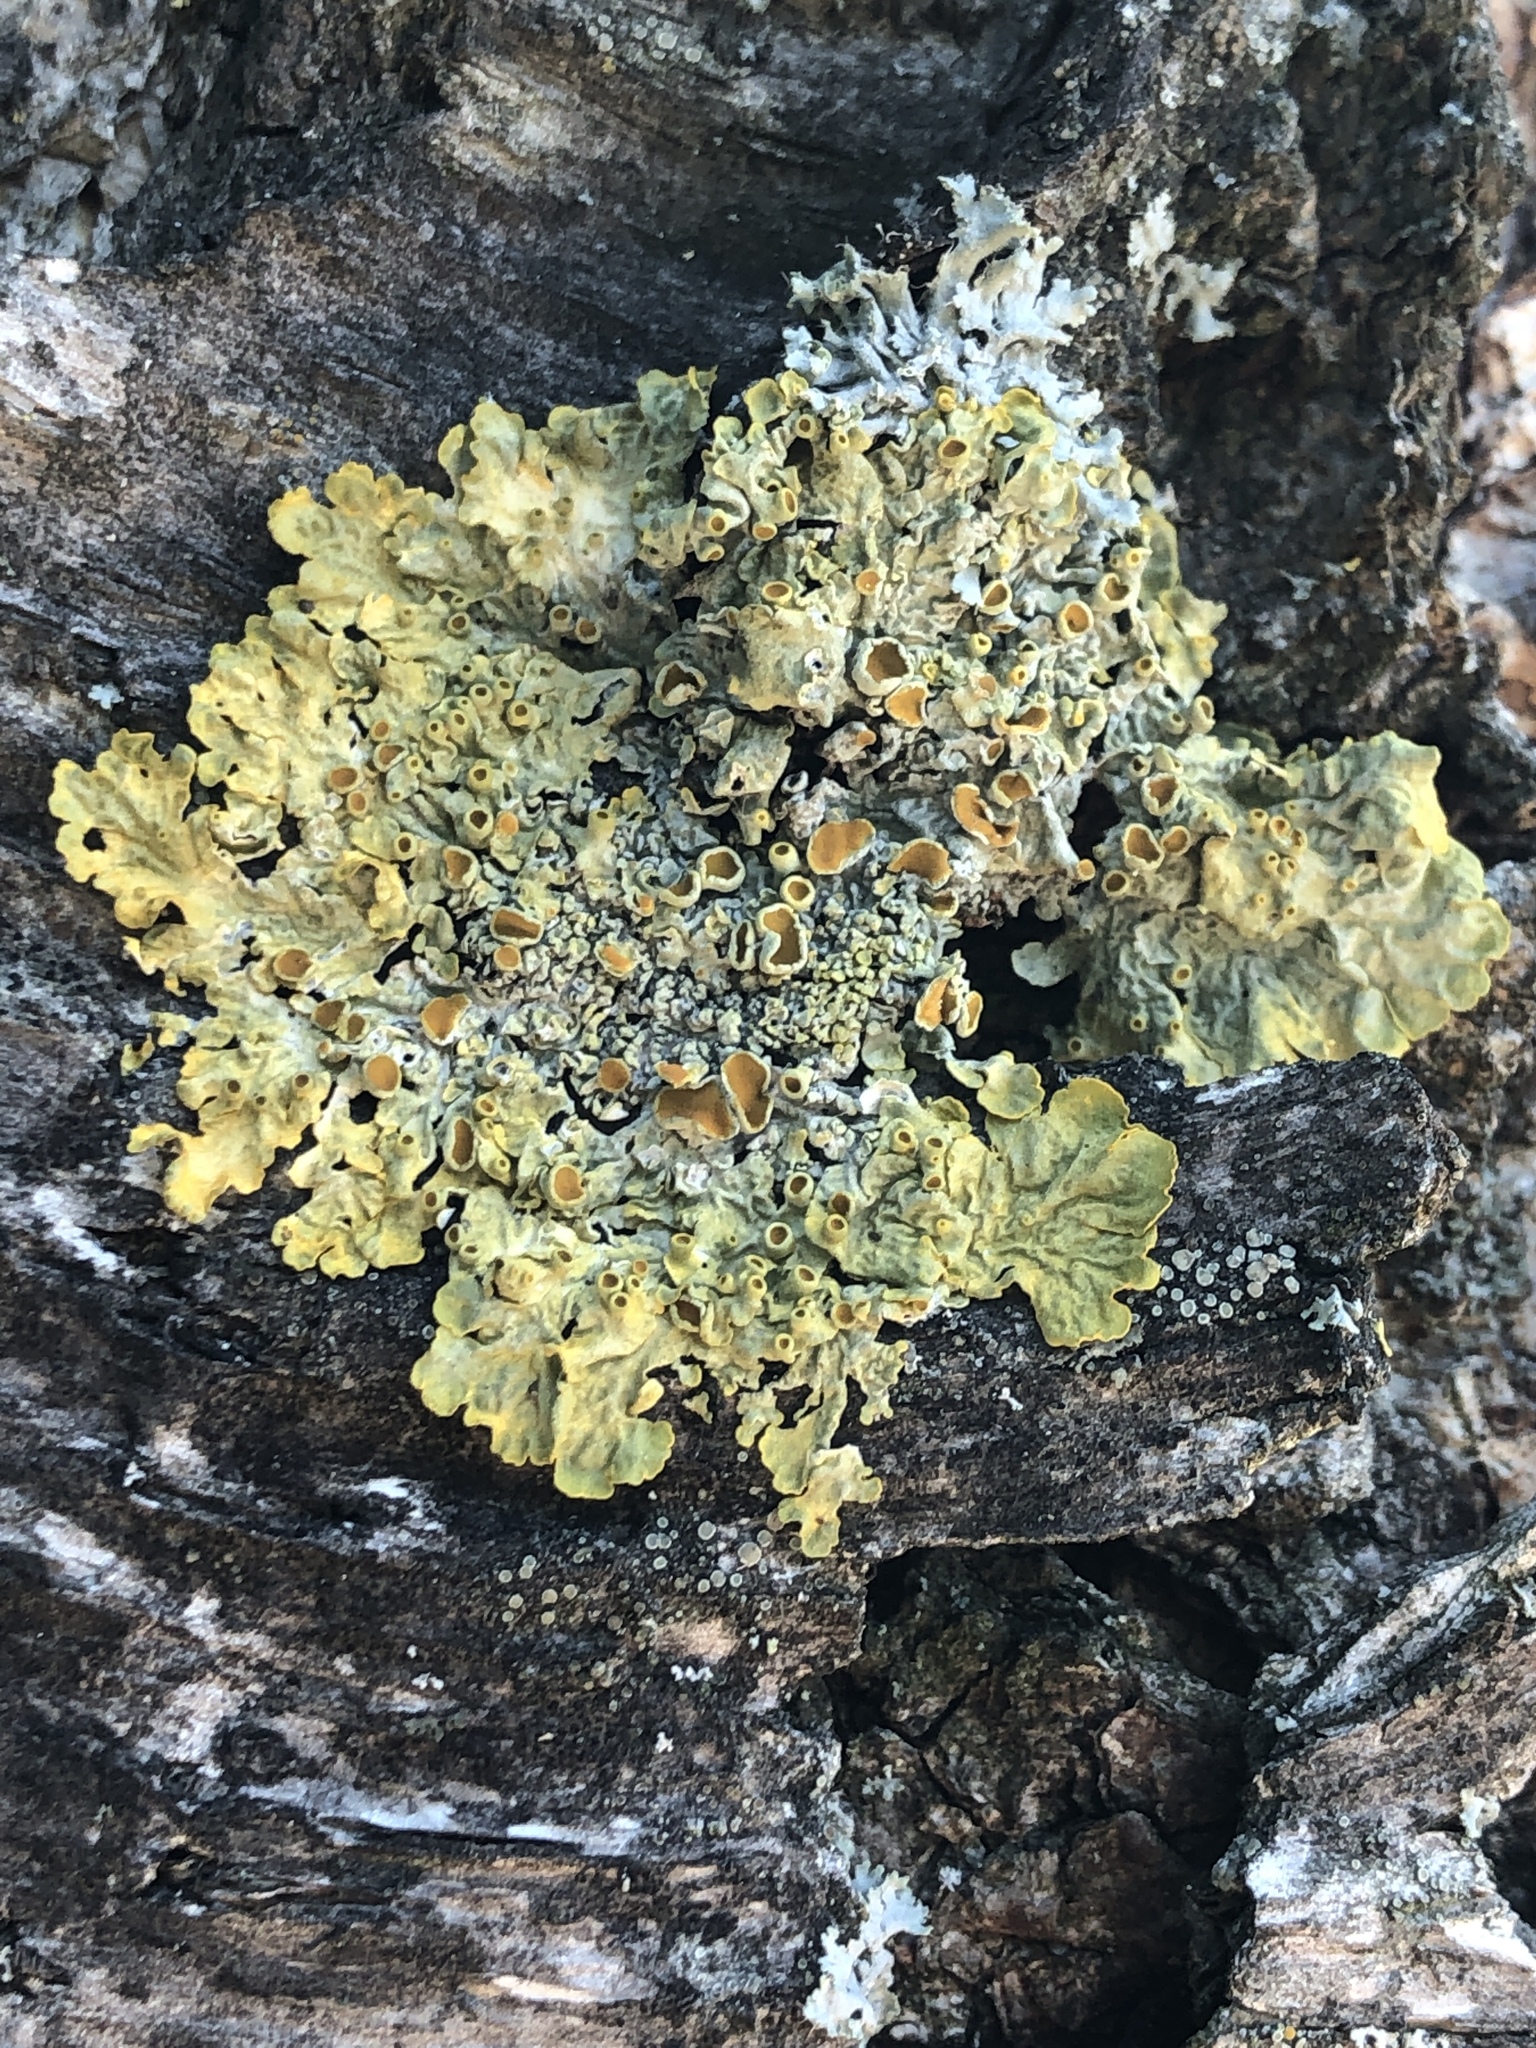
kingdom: Fungi
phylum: Ascomycota
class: Lecanoromycetes
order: Teloschistales
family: Teloschistaceae
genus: Xanthoria
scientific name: Xanthoria parietina
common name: Common orange lichen
